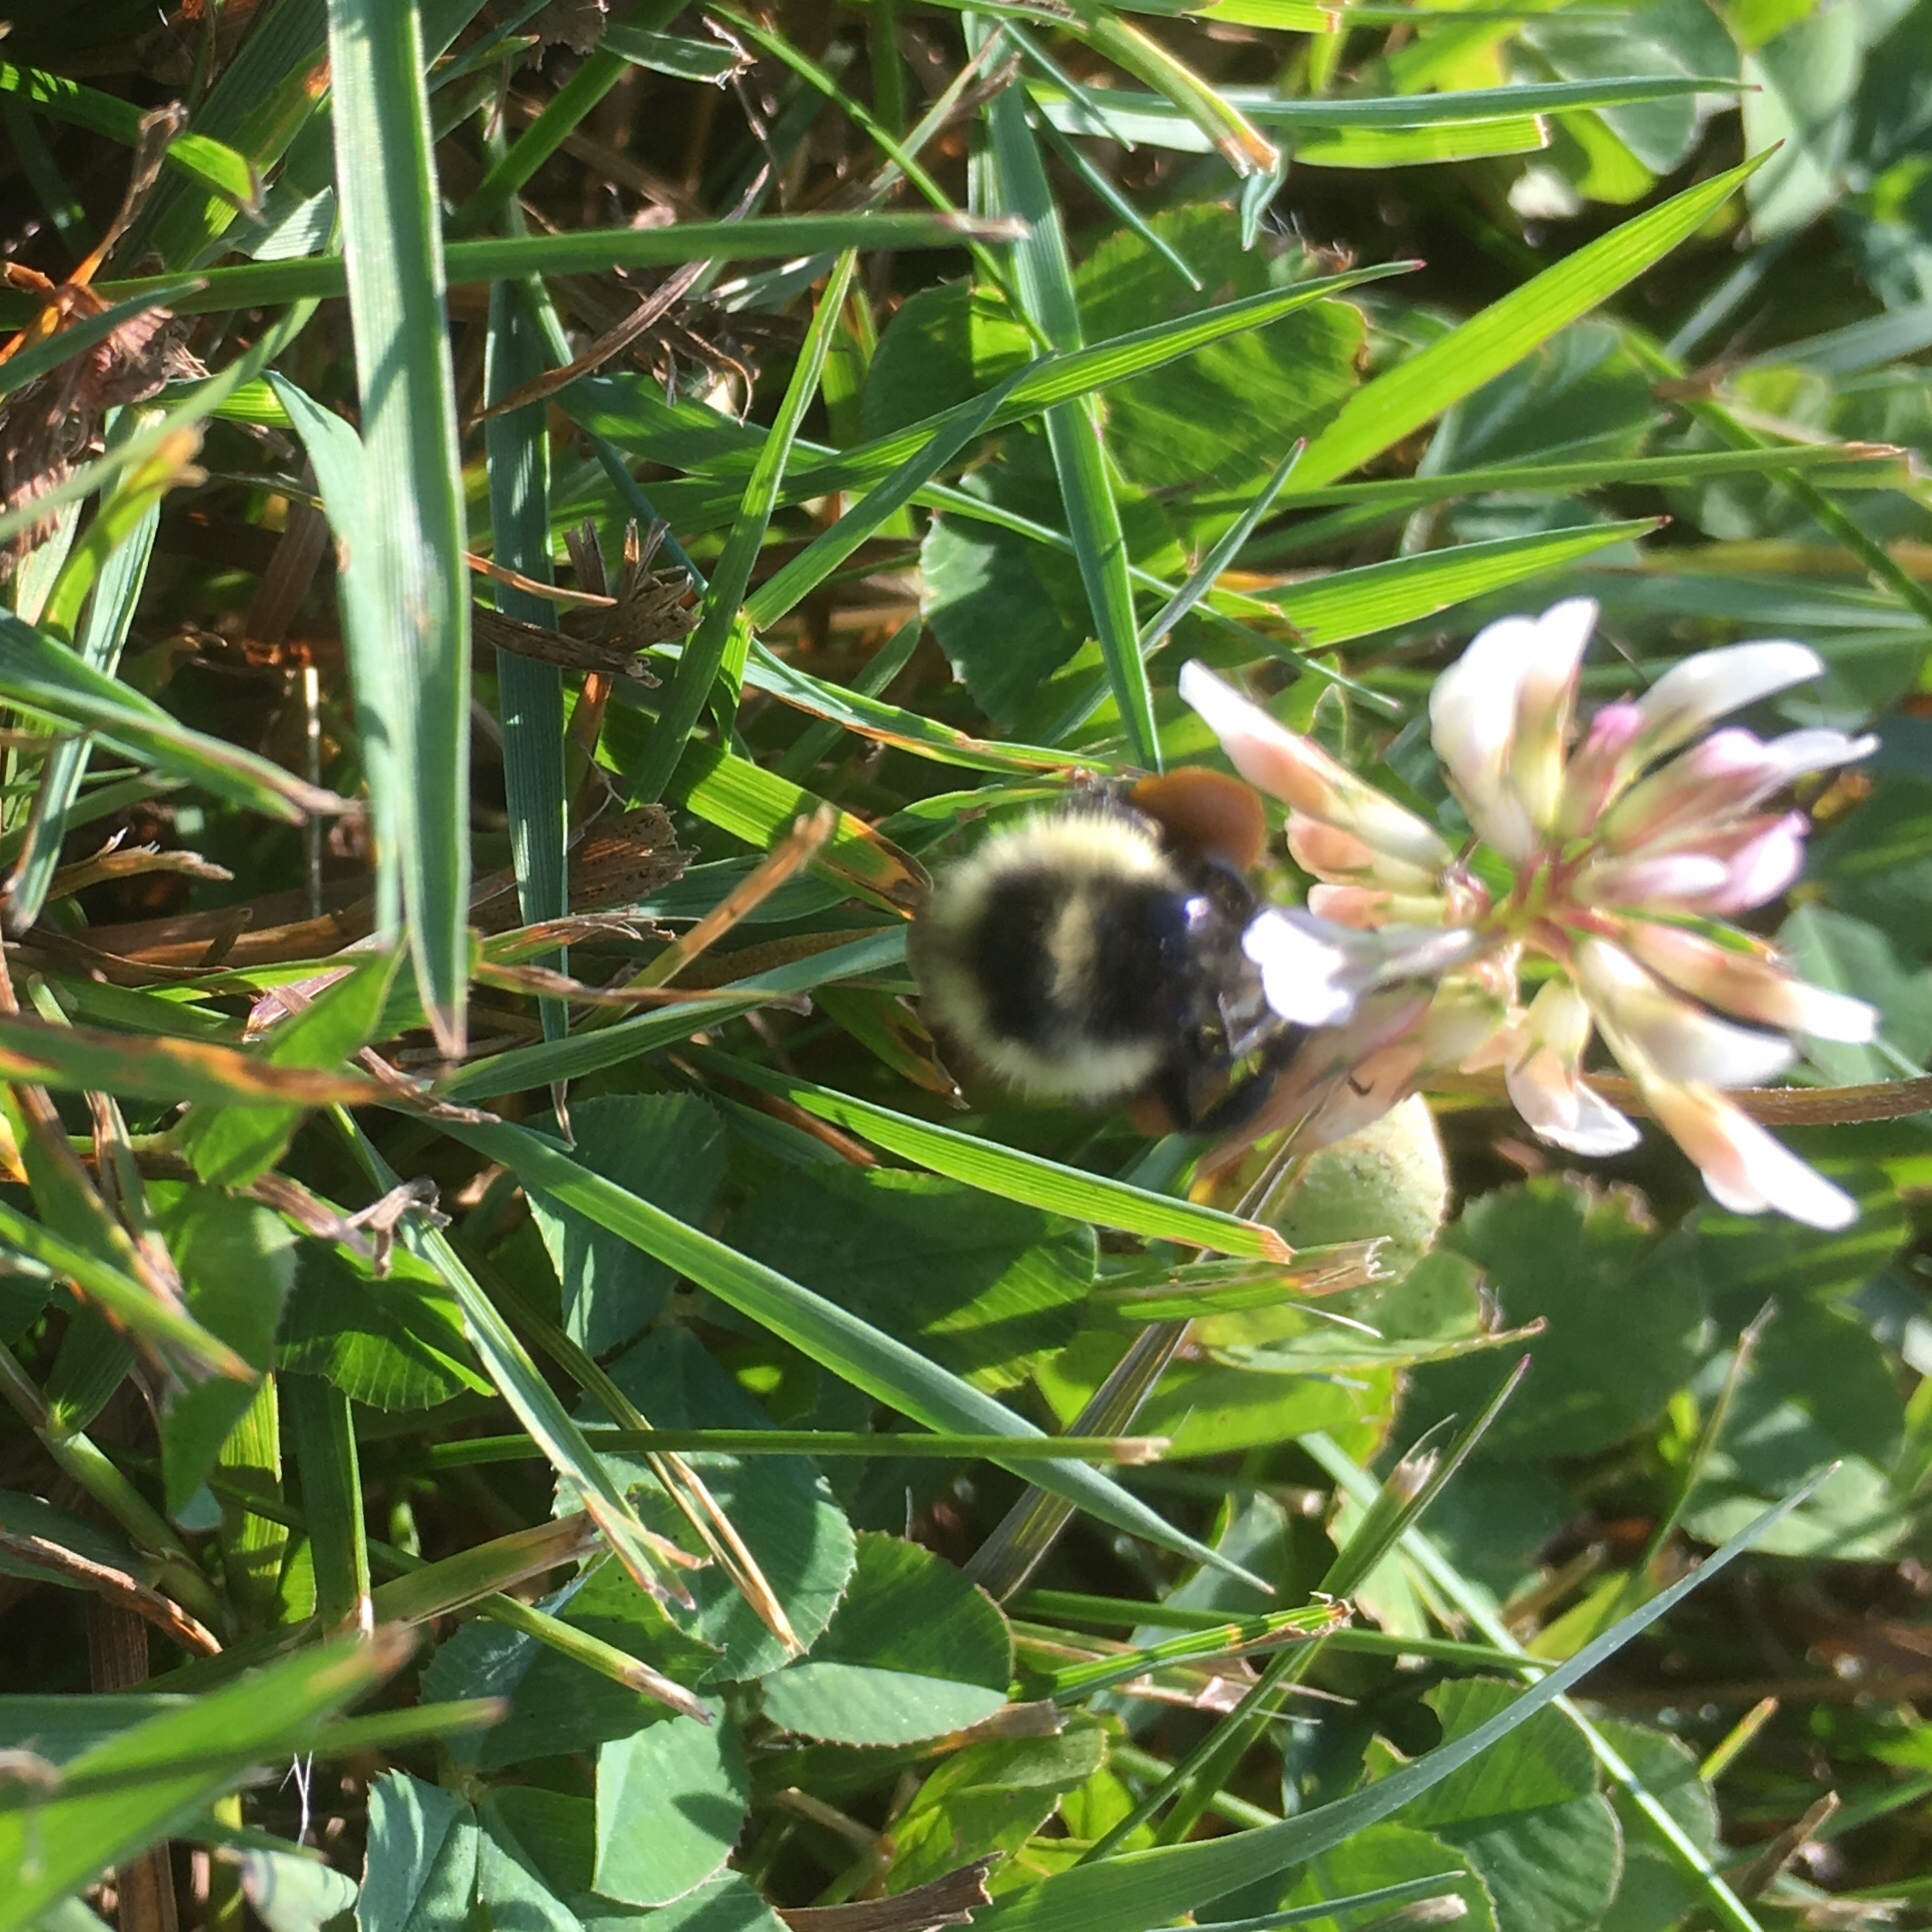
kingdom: Animalia
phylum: Arthropoda
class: Insecta
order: Hymenoptera
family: Apidae
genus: Bombus
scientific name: Bombus ternarius
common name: Tri-colored bumble bee
